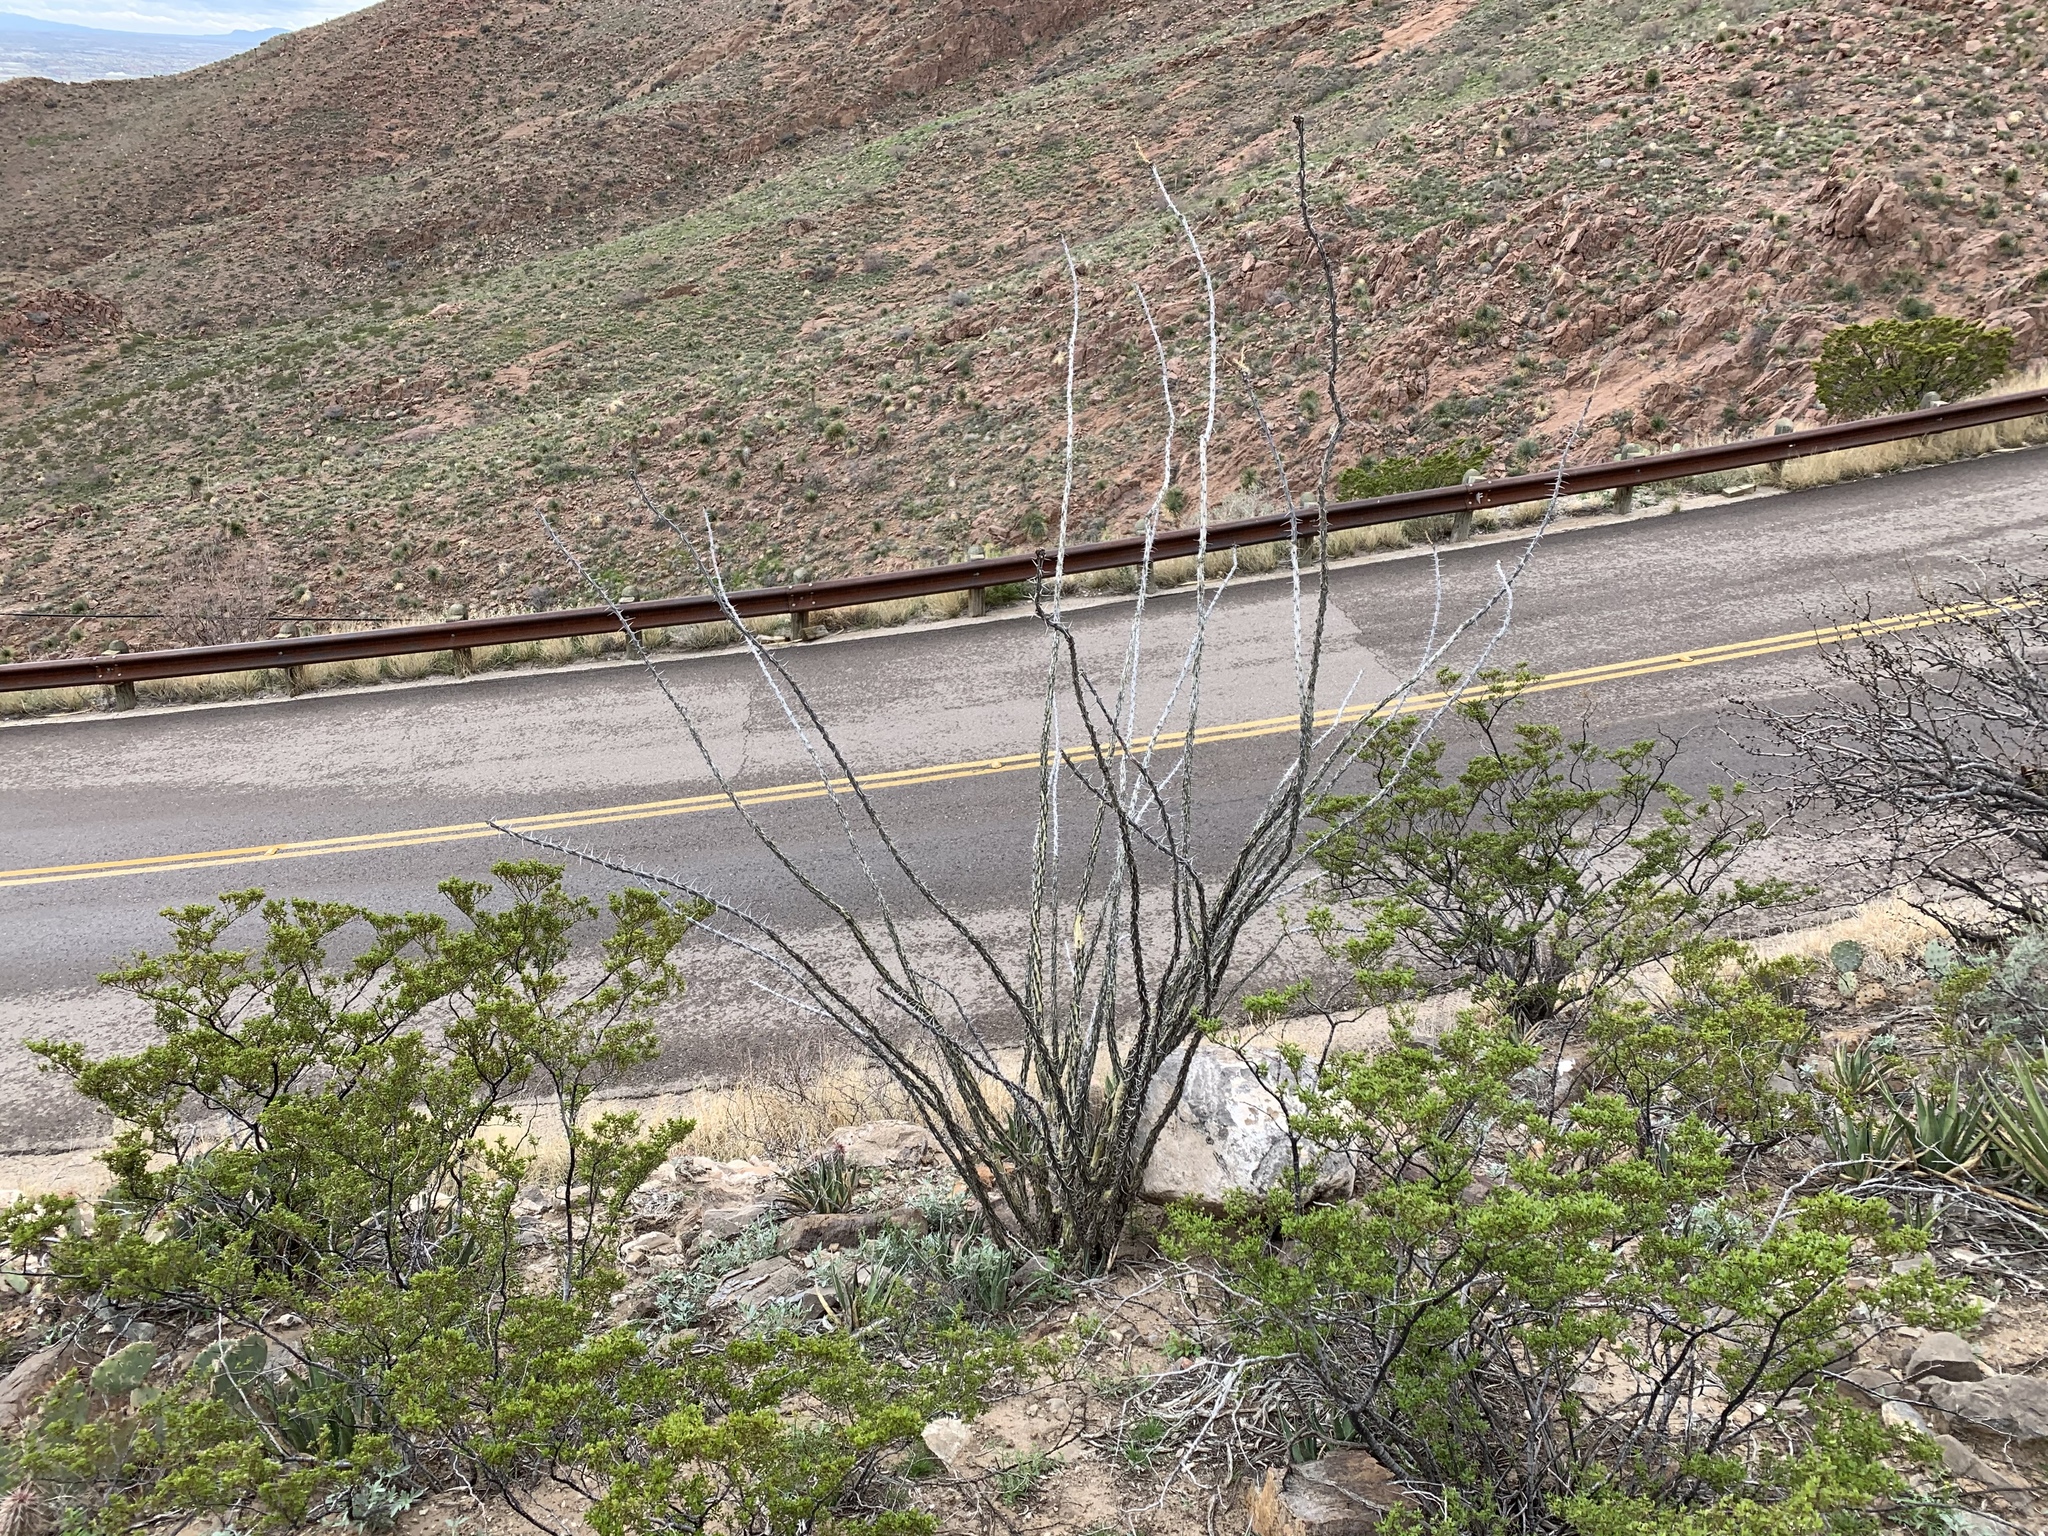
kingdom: Plantae
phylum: Tracheophyta
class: Magnoliopsida
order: Ericales
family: Fouquieriaceae
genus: Fouquieria
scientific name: Fouquieria splendens
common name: Vine-cactus
